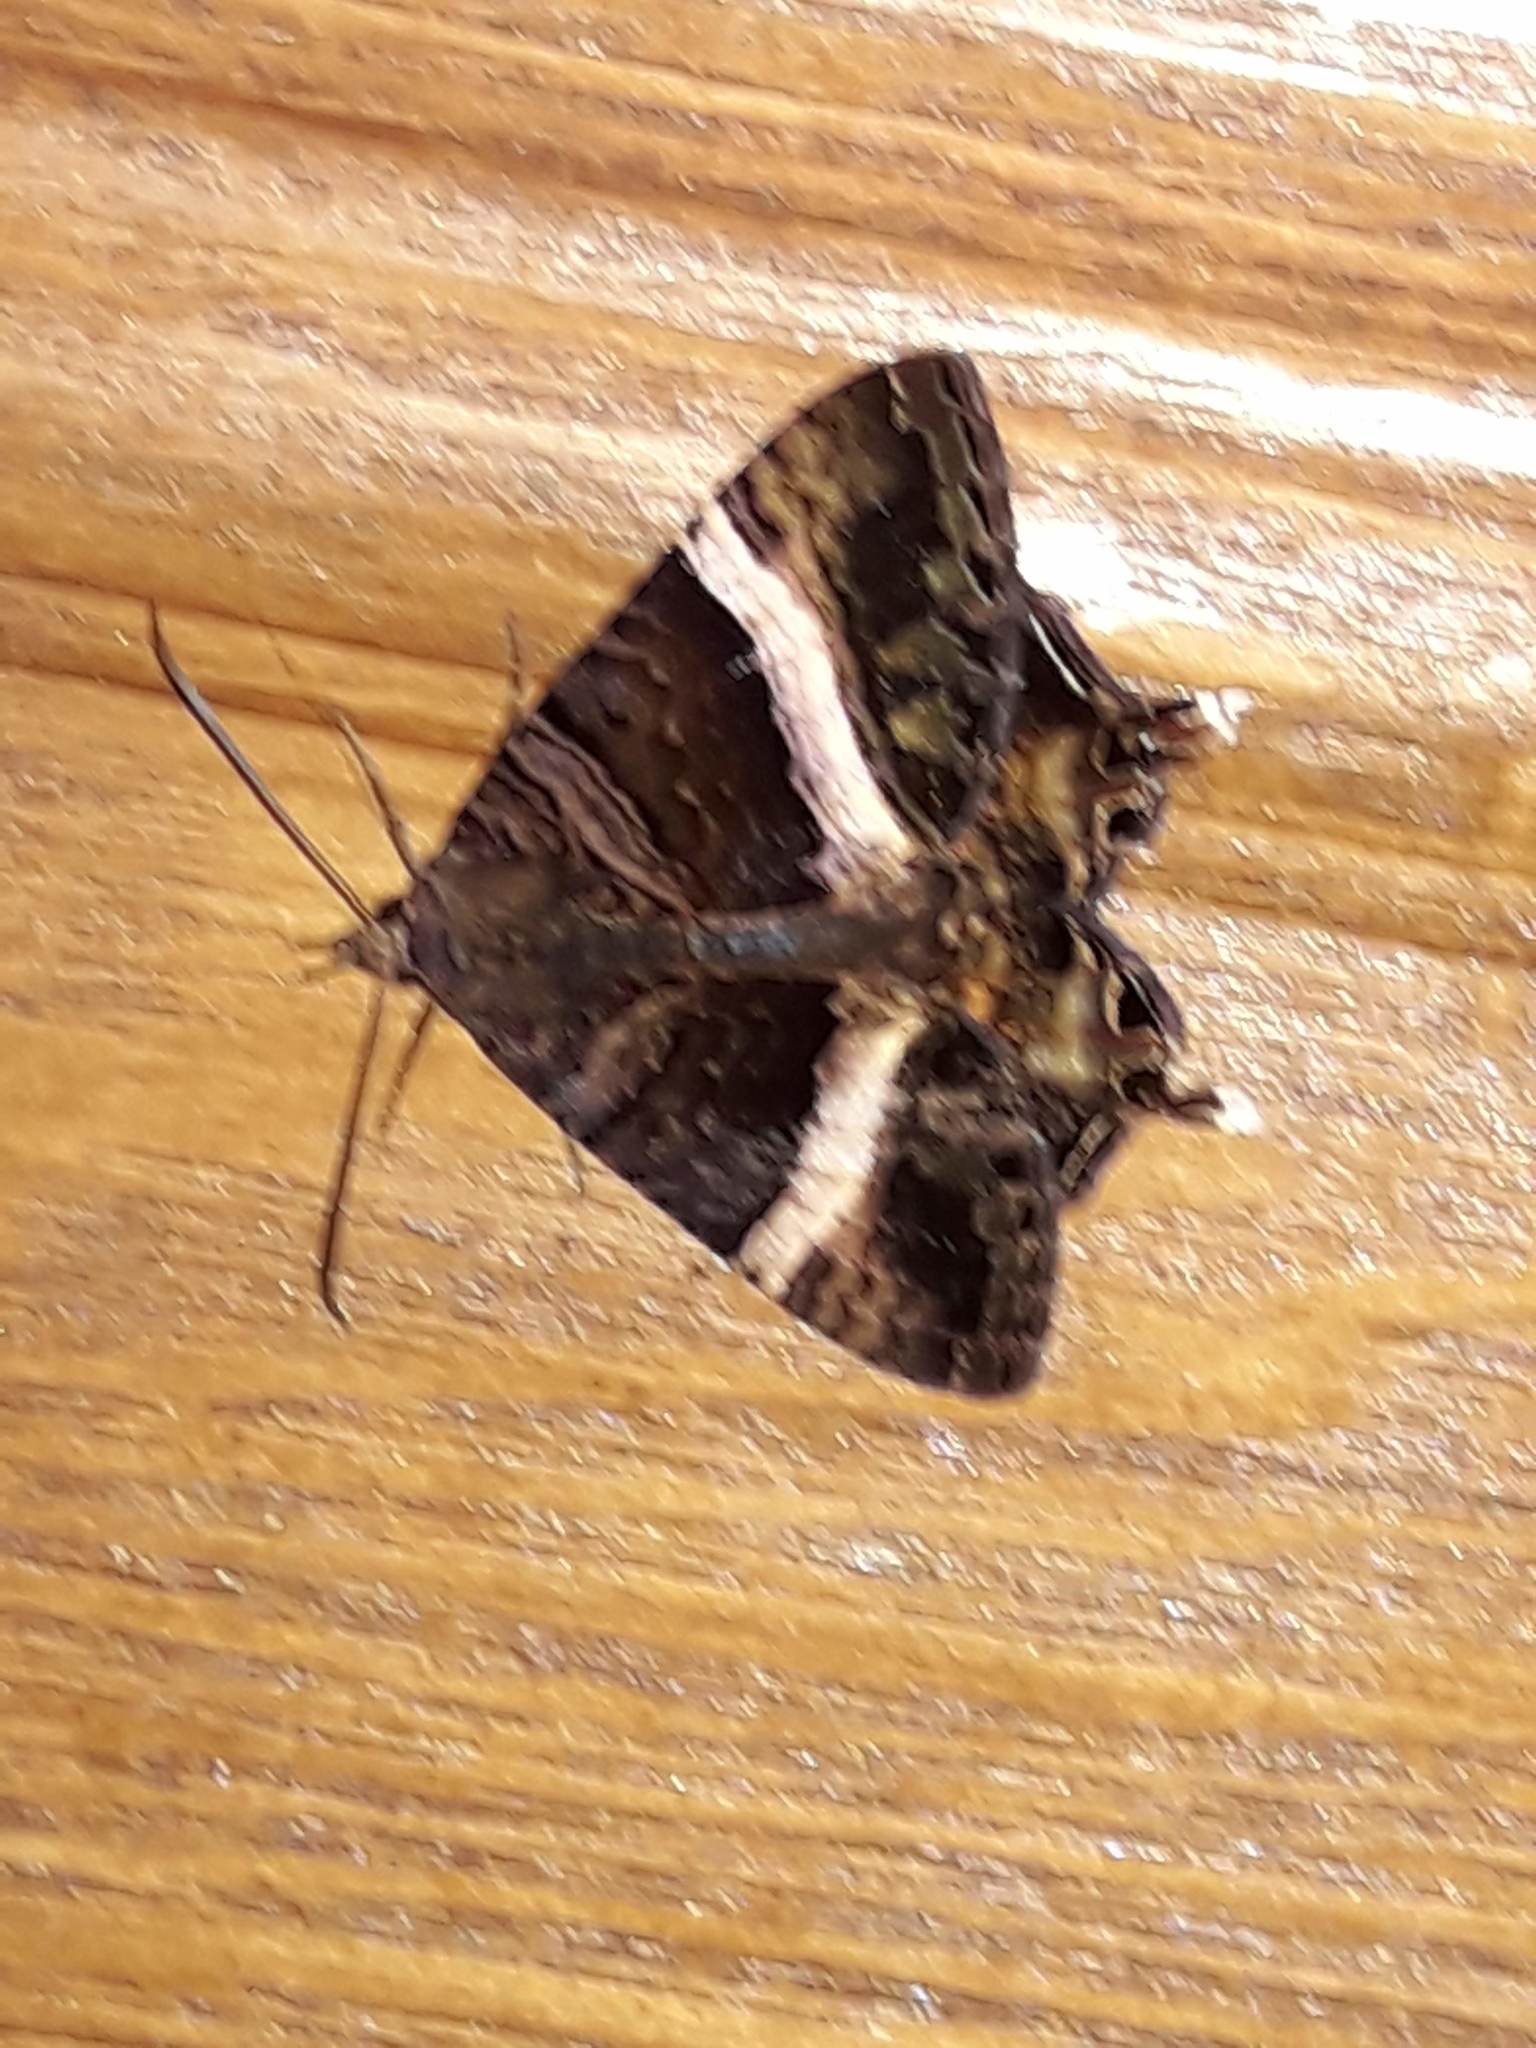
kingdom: Animalia
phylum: Arthropoda
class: Insecta
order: Lepidoptera
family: Sematuridae
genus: Coronidia
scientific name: Coronidia leachii
